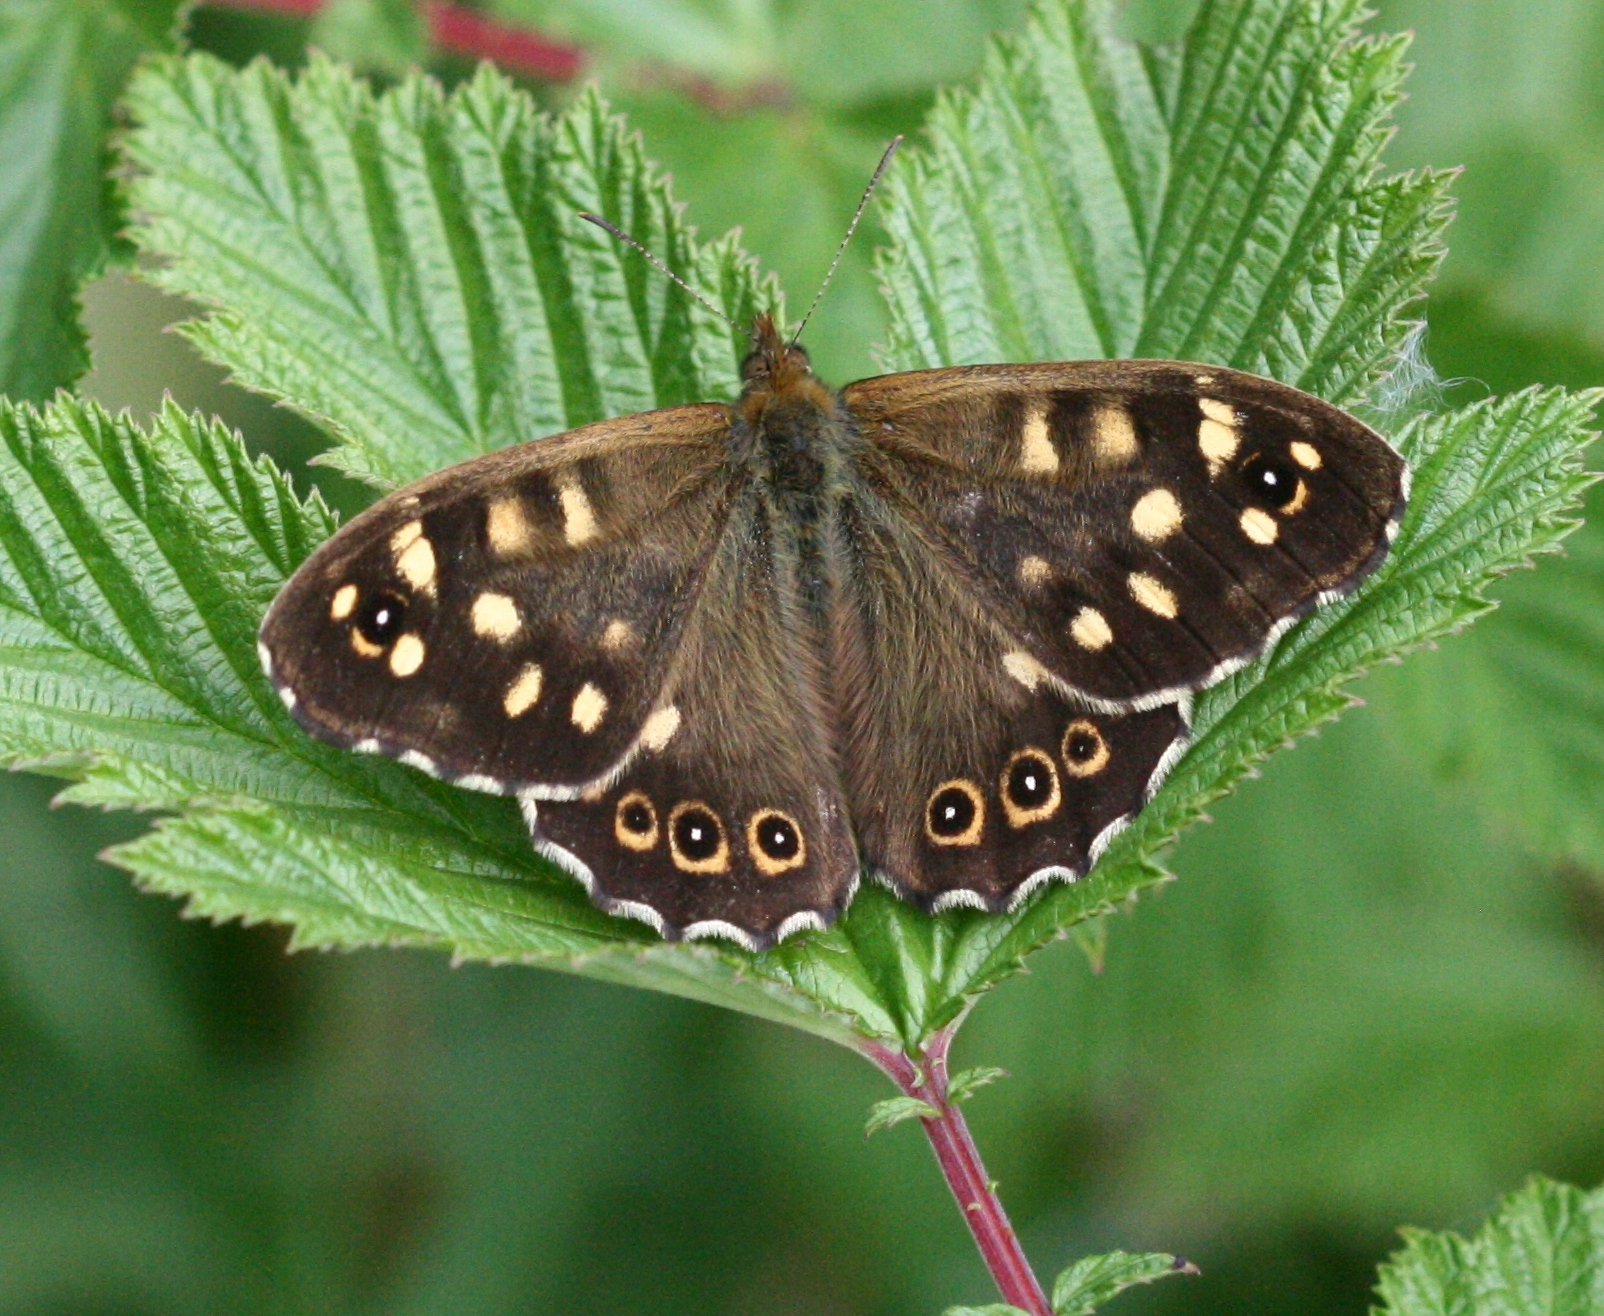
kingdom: Animalia
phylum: Arthropoda
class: Insecta
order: Lepidoptera
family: Nymphalidae
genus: Pararge
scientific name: Pararge aegeria
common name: Speckled wood
